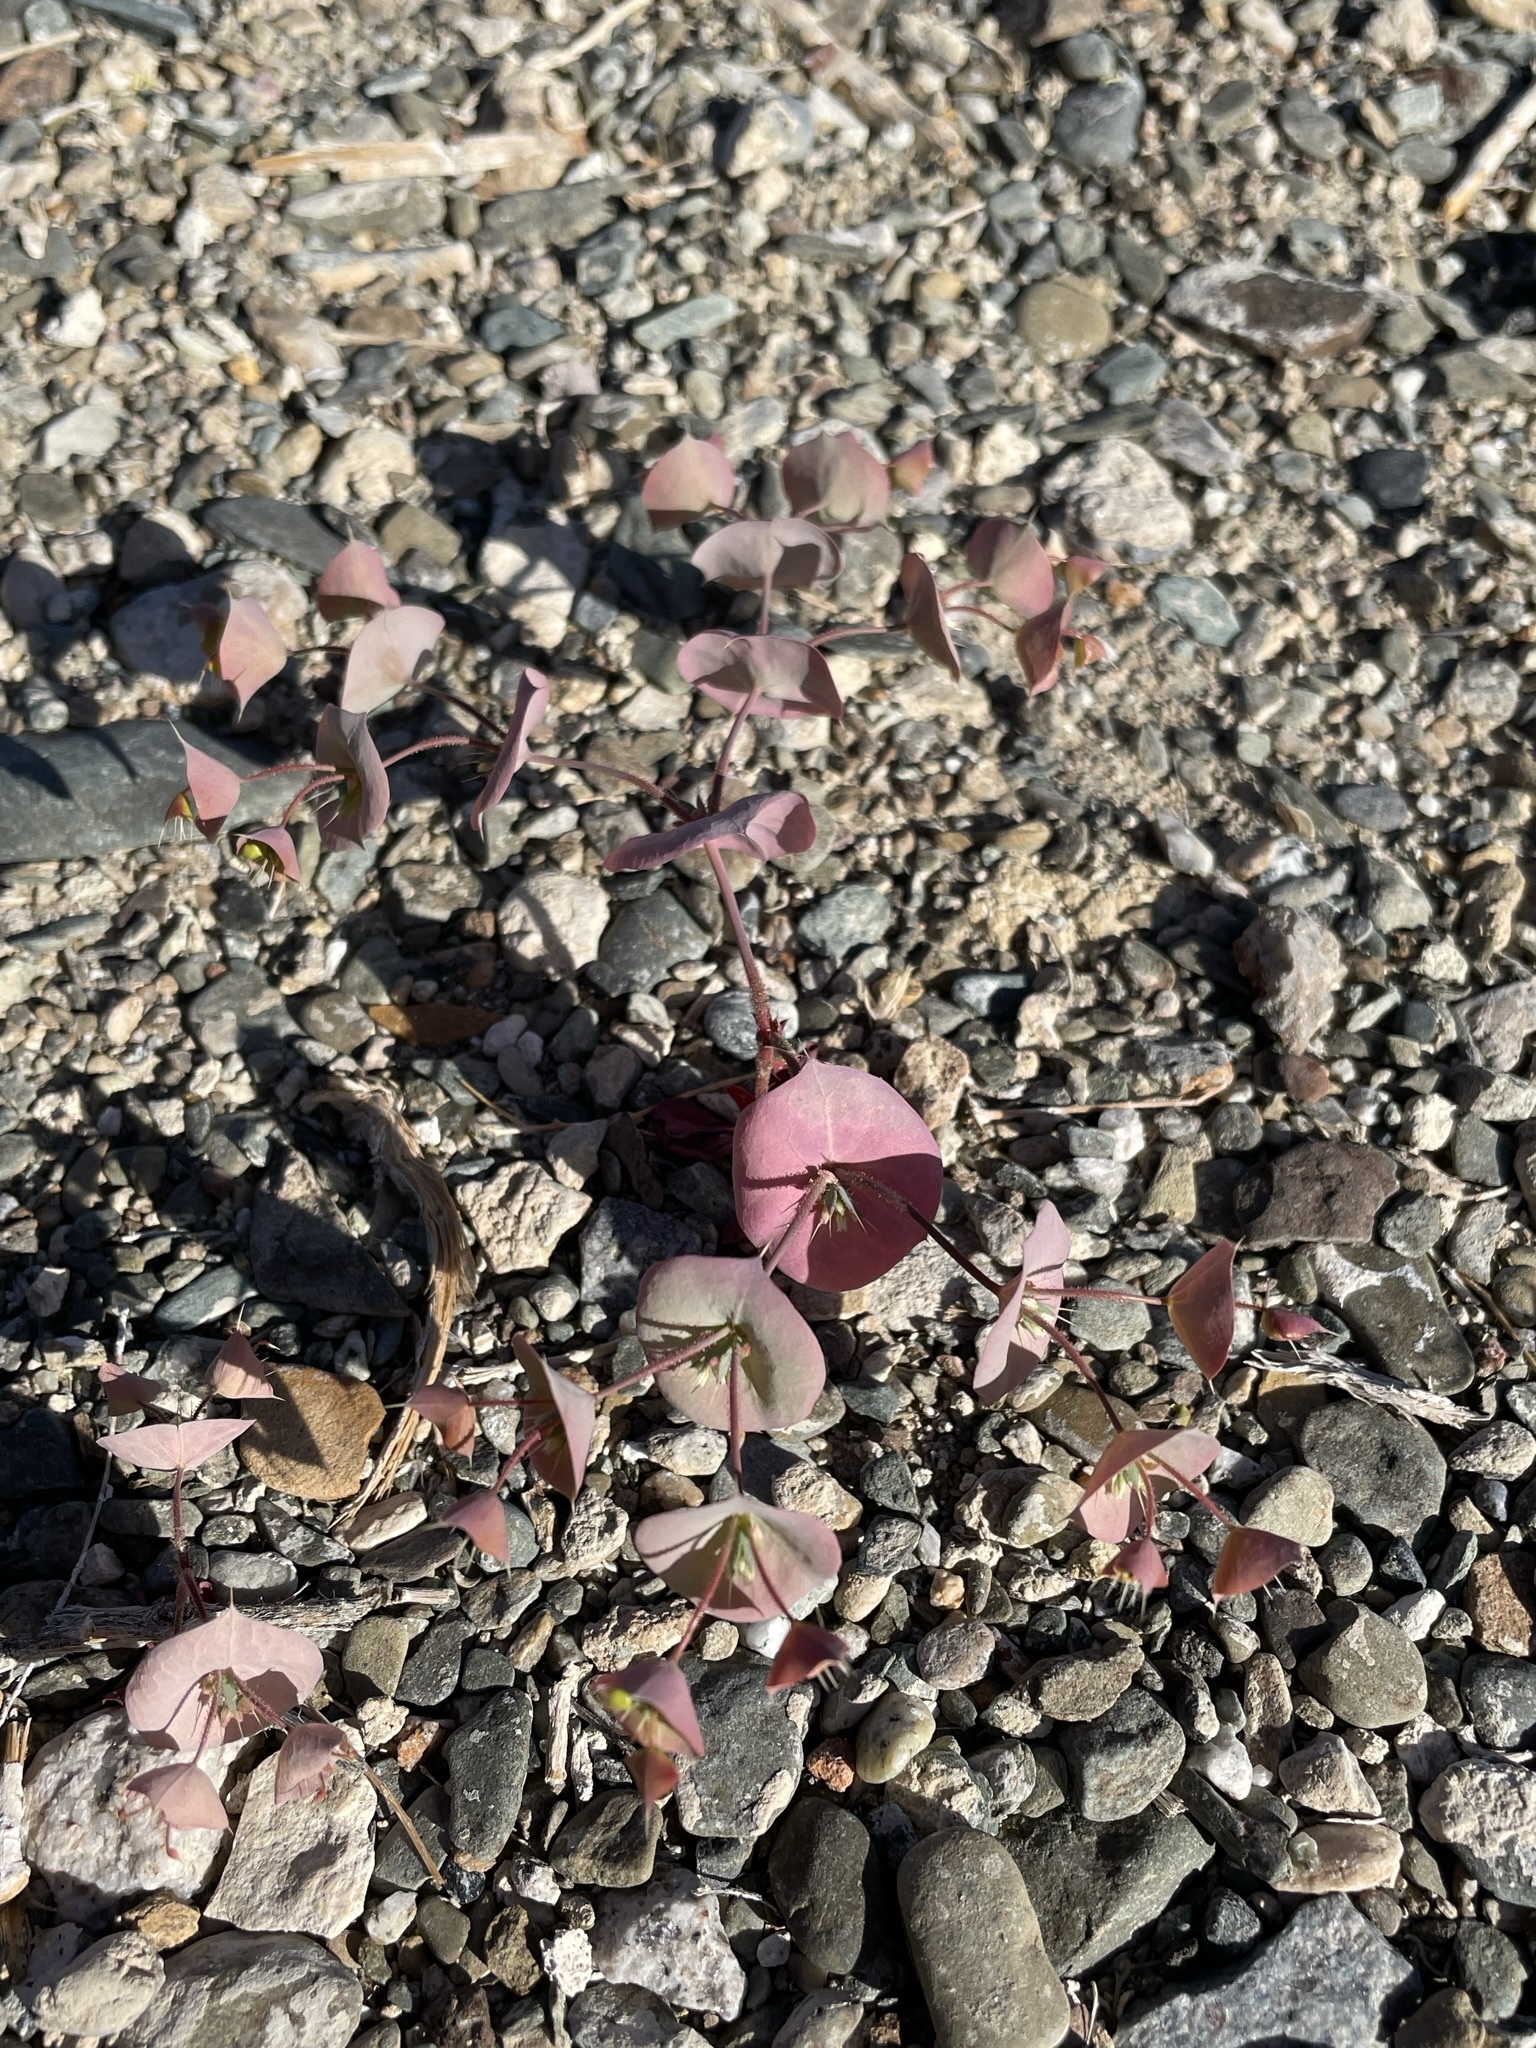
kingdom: Plantae
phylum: Tracheophyta
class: Magnoliopsida
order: Caryophyllales
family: Polygonaceae
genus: Oxytheca
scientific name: Oxytheca perfoliata
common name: Round-leaf puncturebract
